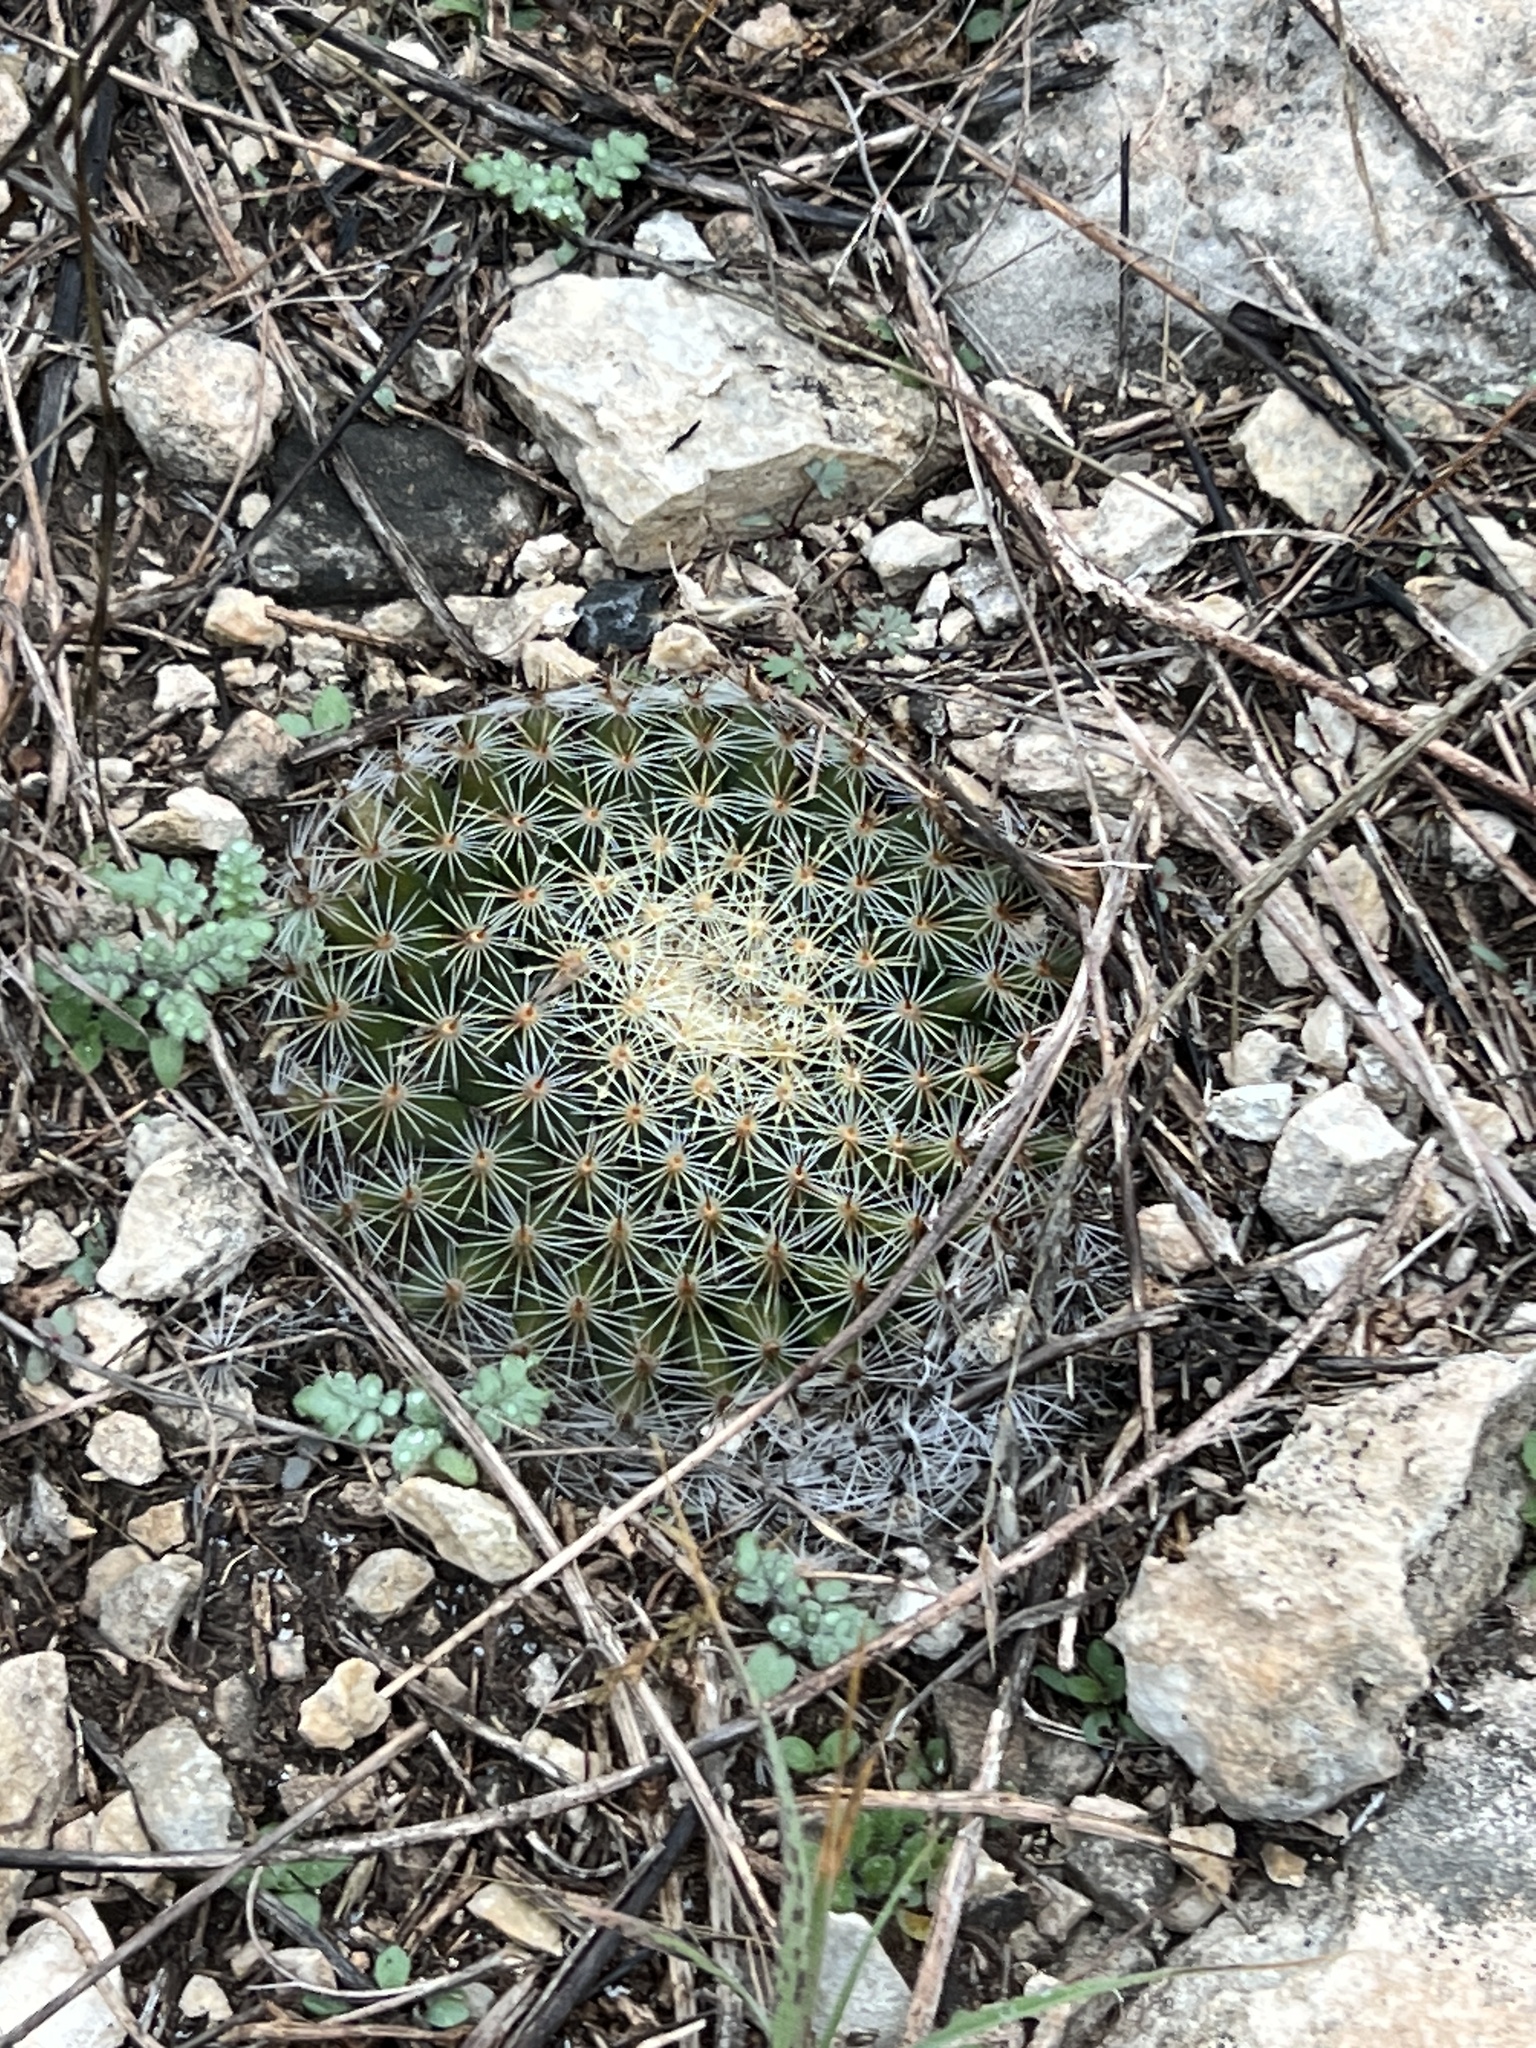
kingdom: Plantae
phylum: Tracheophyta
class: Magnoliopsida
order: Caryophyllales
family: Cactaceae
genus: Mammillaria
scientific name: Mammillaria heyderi
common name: Little nipple cactus
